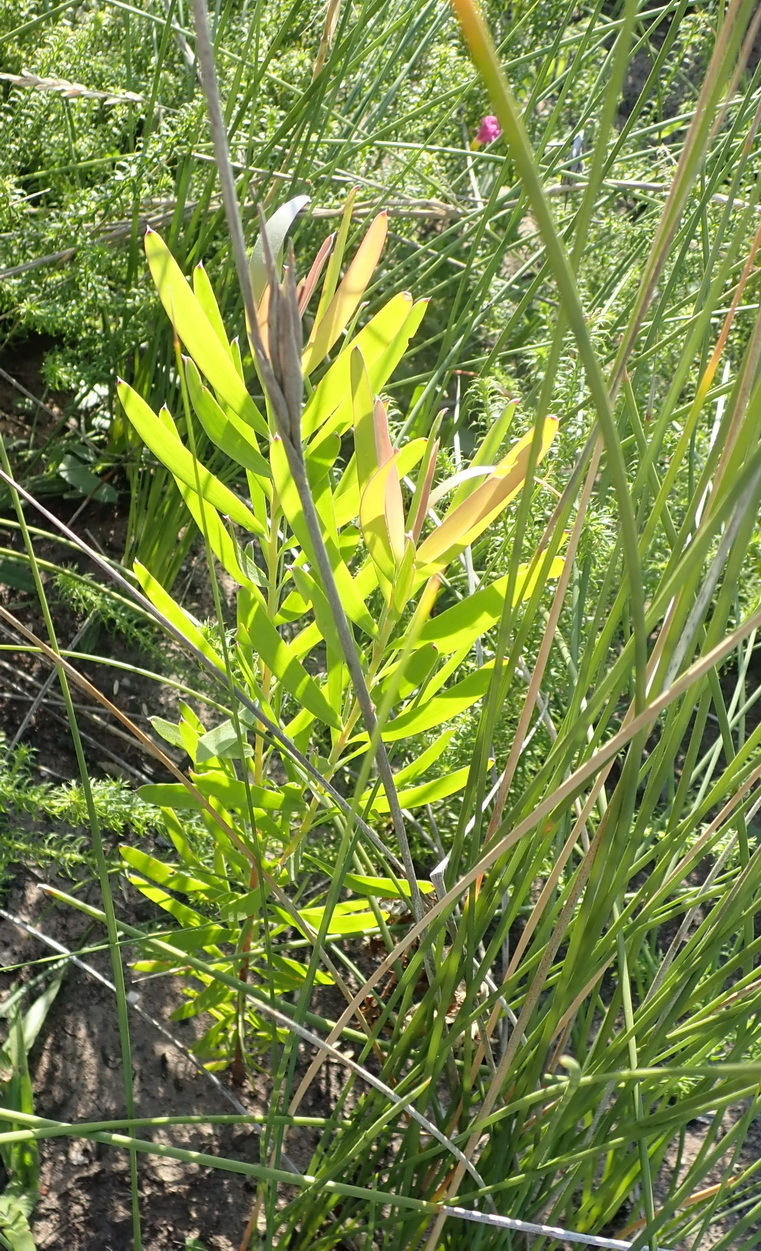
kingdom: Plantae
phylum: Tracheophyta
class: Magnoliopsida
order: Proteales
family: Proteaceae
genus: Leucadendron
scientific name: Leucadendron salignum
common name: Common sunshine conebush
